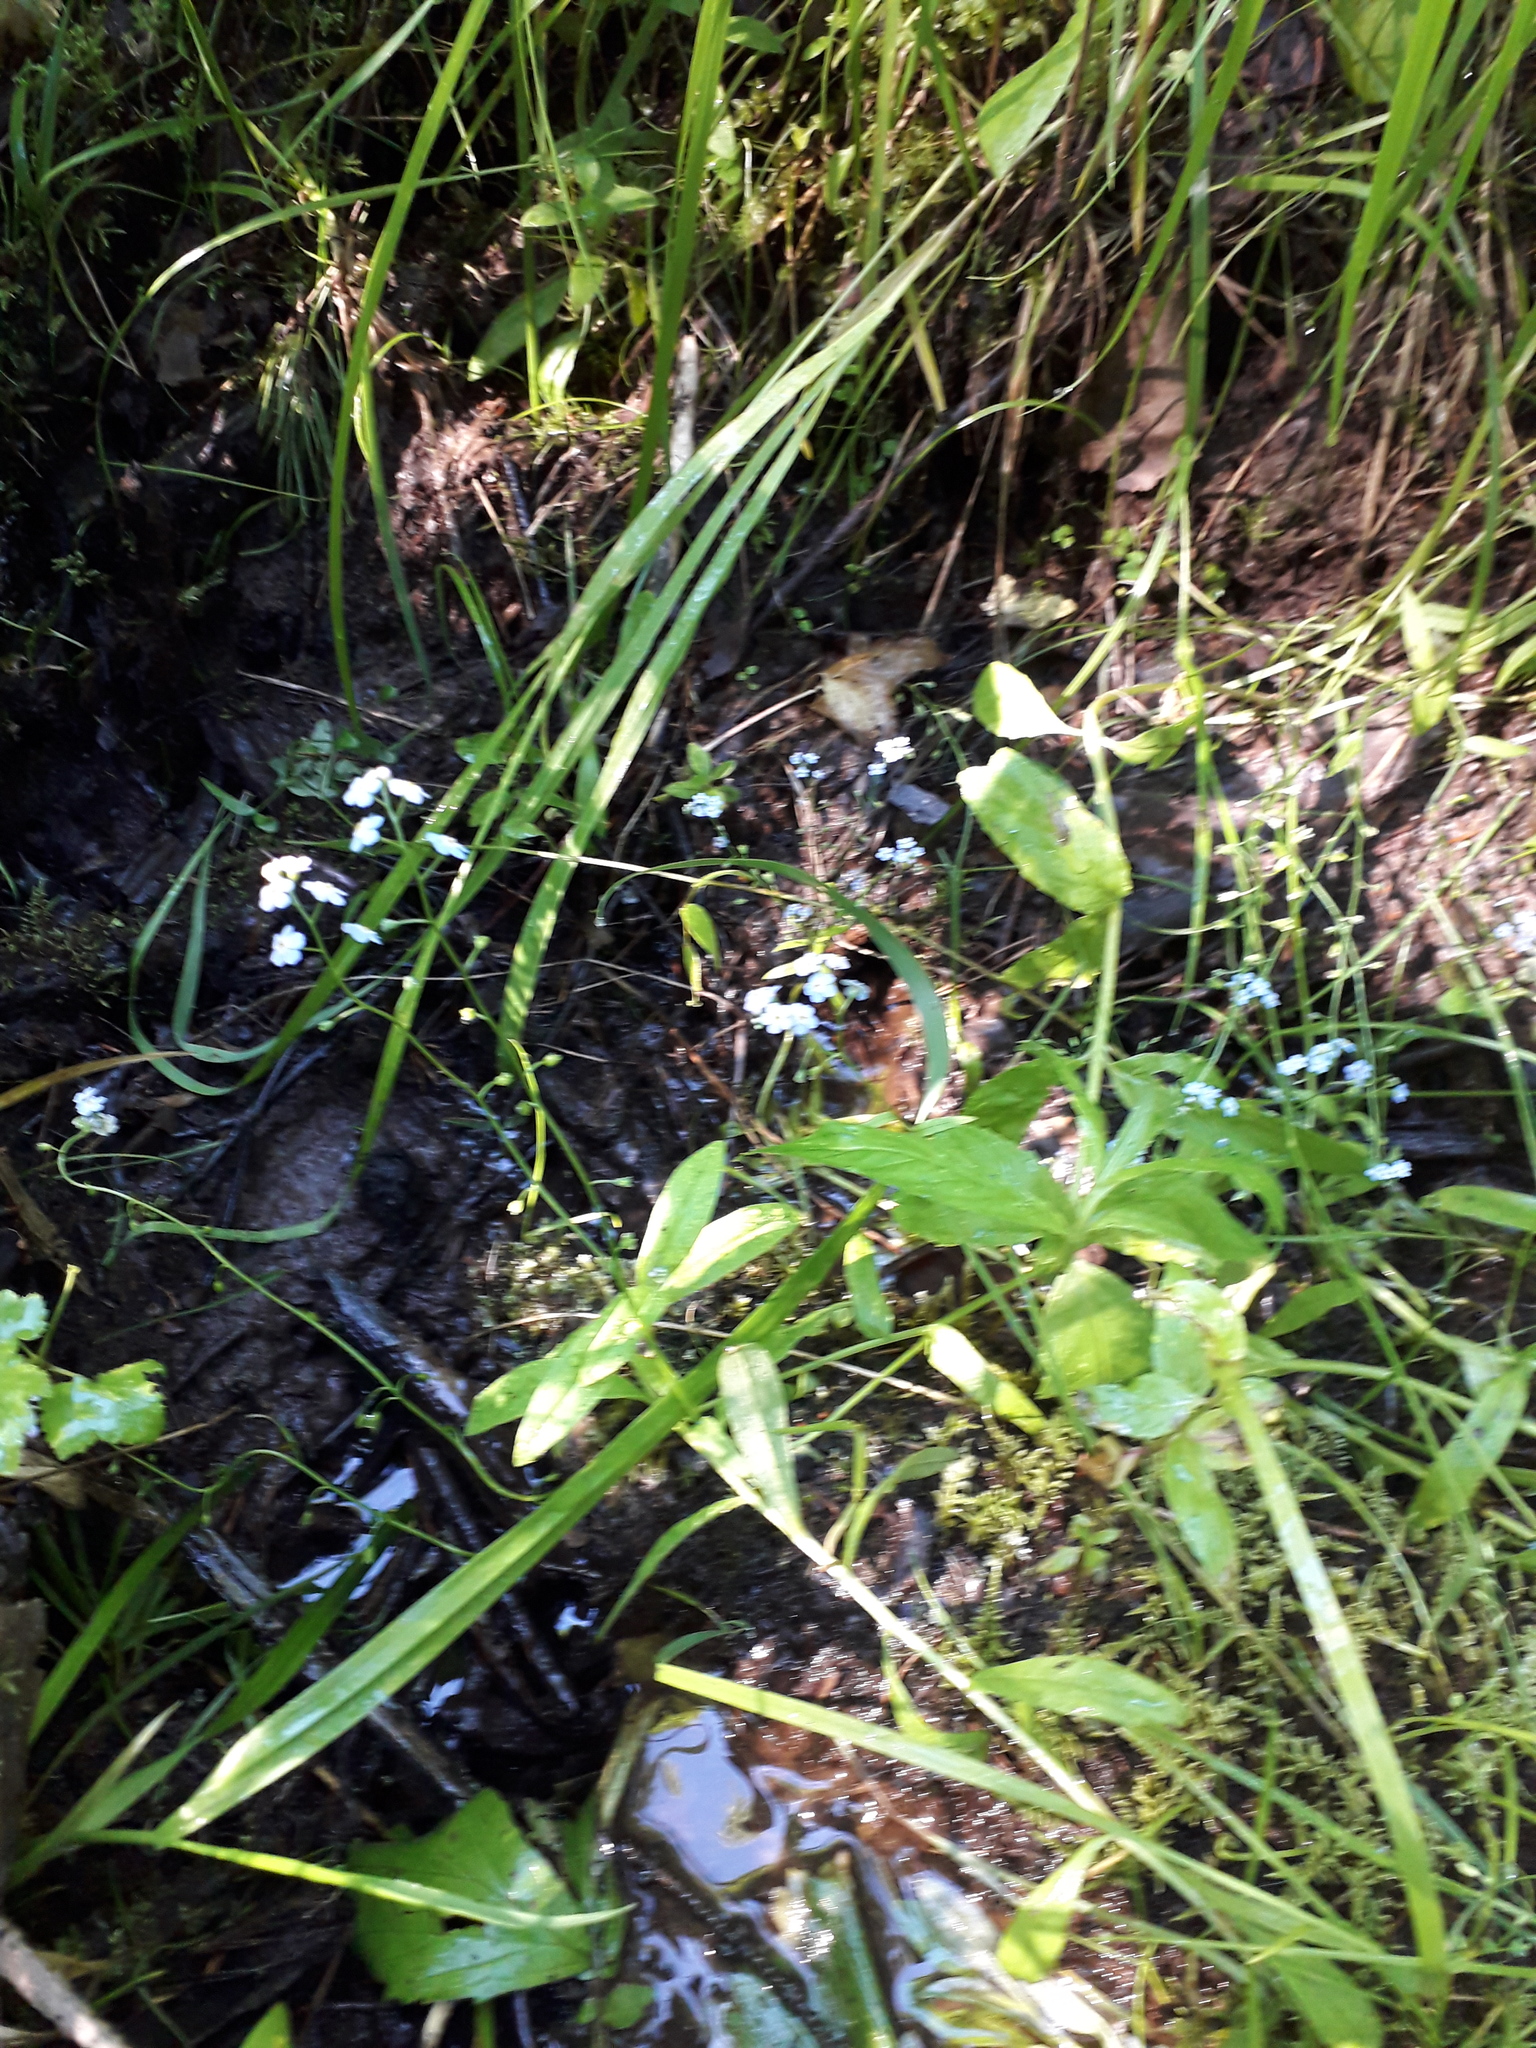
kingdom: Plantae
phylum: Tracheophyta
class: Magnoliopsida
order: Boraginales
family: Boraginaceae
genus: Myosotis
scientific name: Myosotis scorpioides
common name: Water forget-me-not
